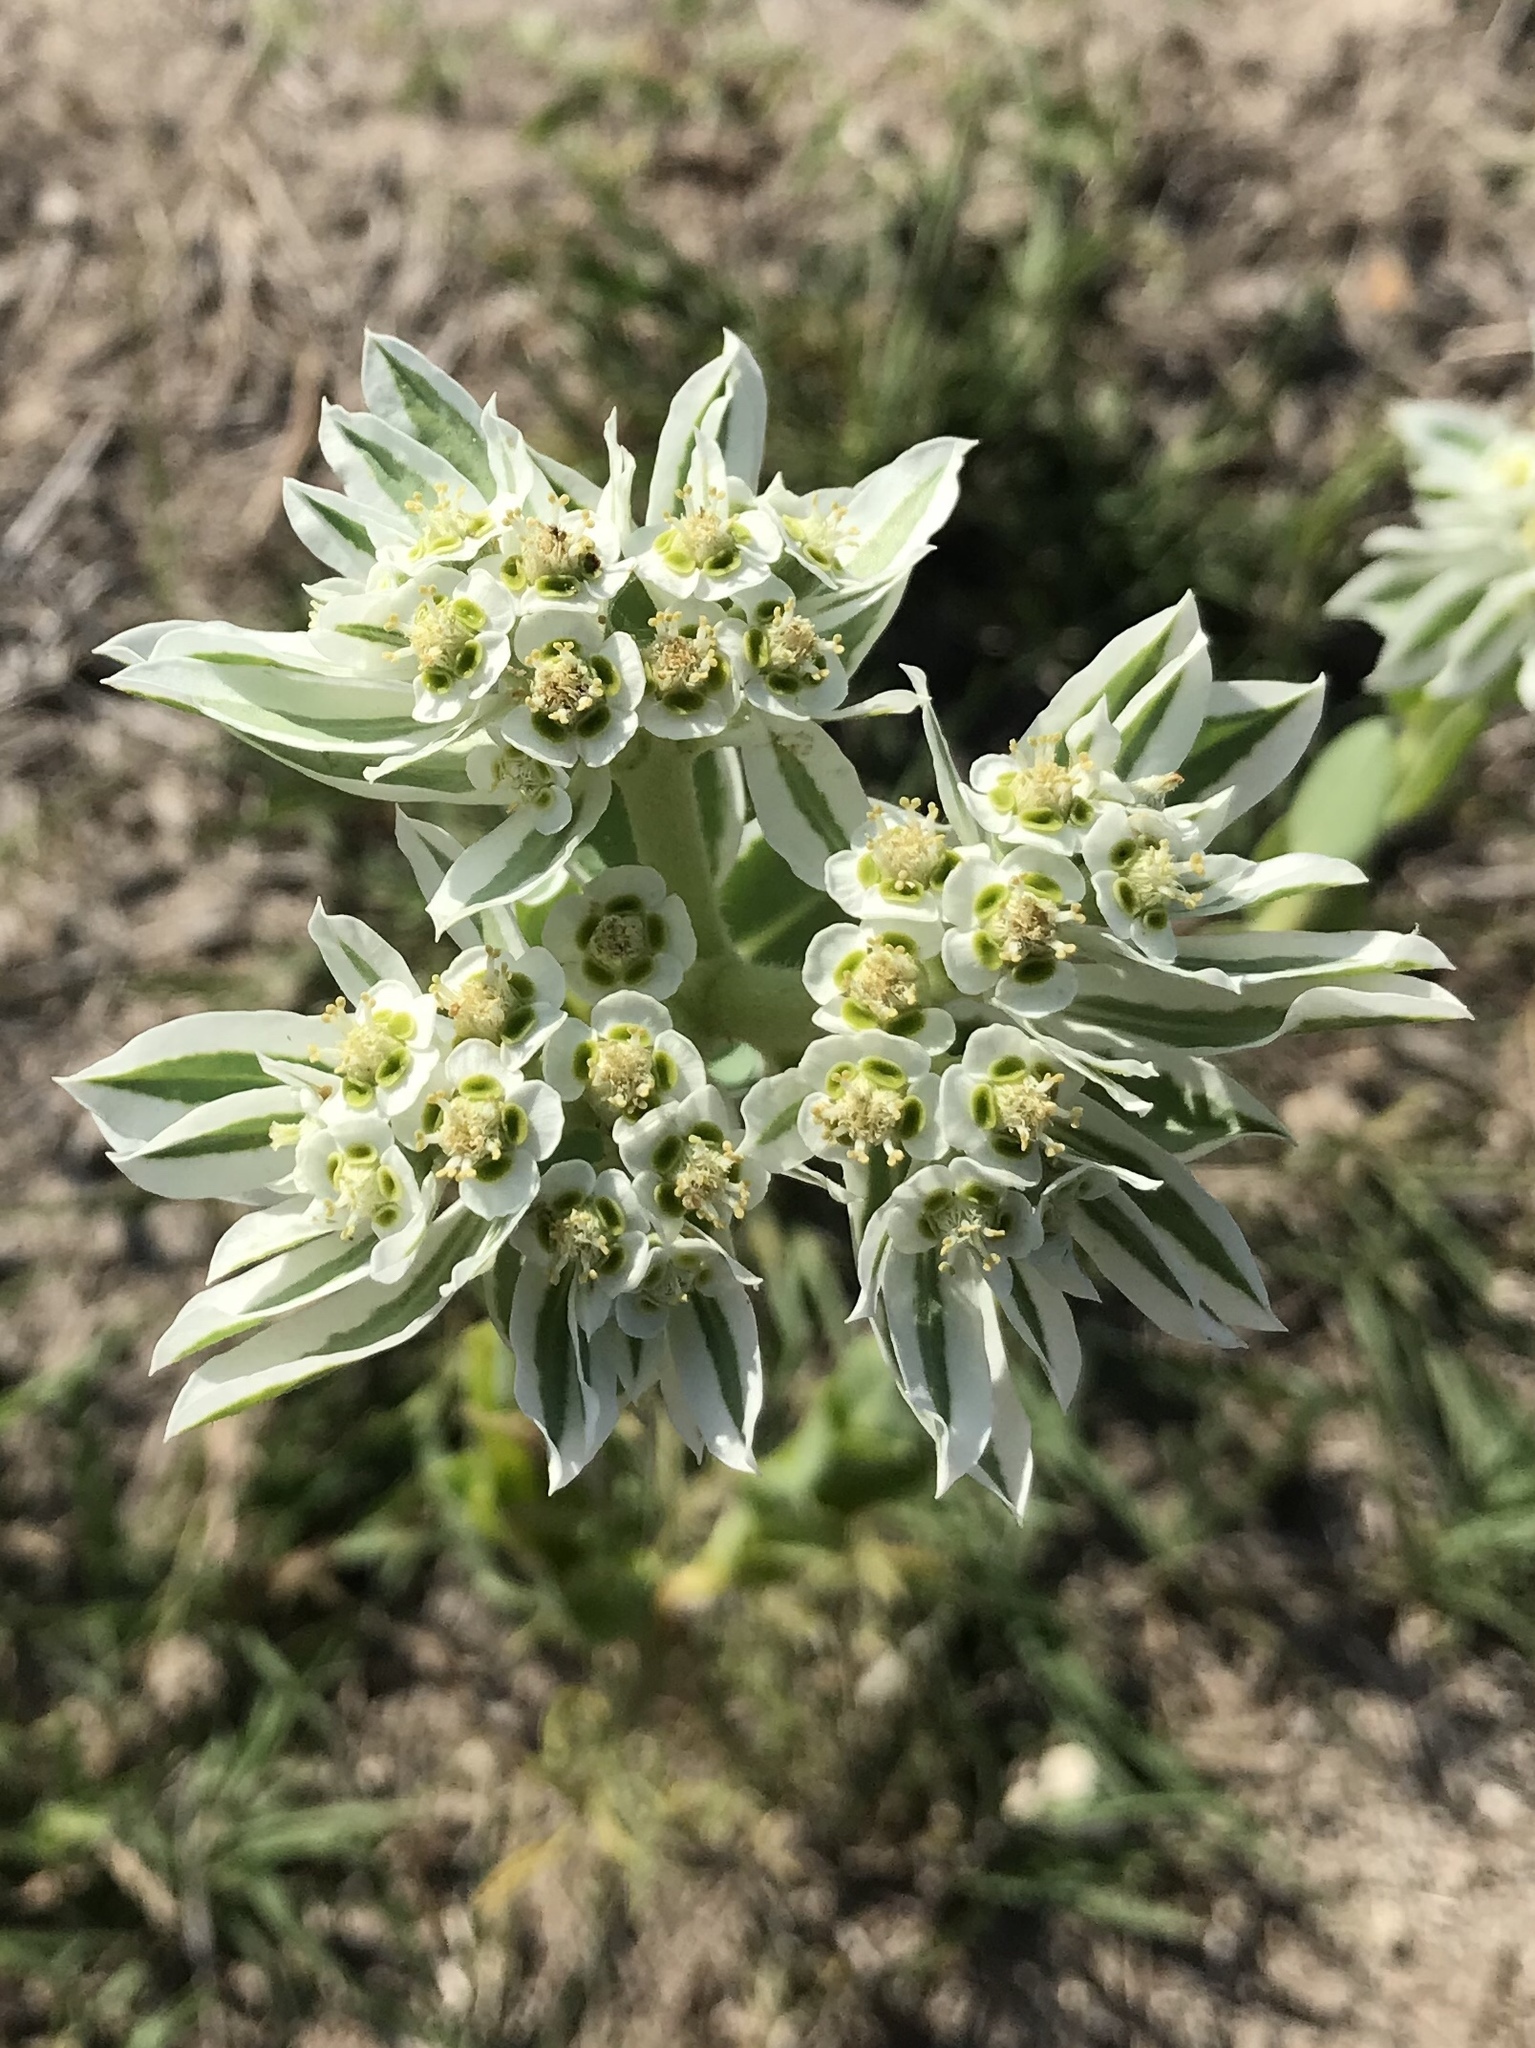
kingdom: Plantae
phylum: Tracheophyta
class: Magnoliopsida
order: Malpighiales
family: Euphorbiaceae
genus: Euphorbia
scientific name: Euphorbia marginata
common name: Ghostweed
